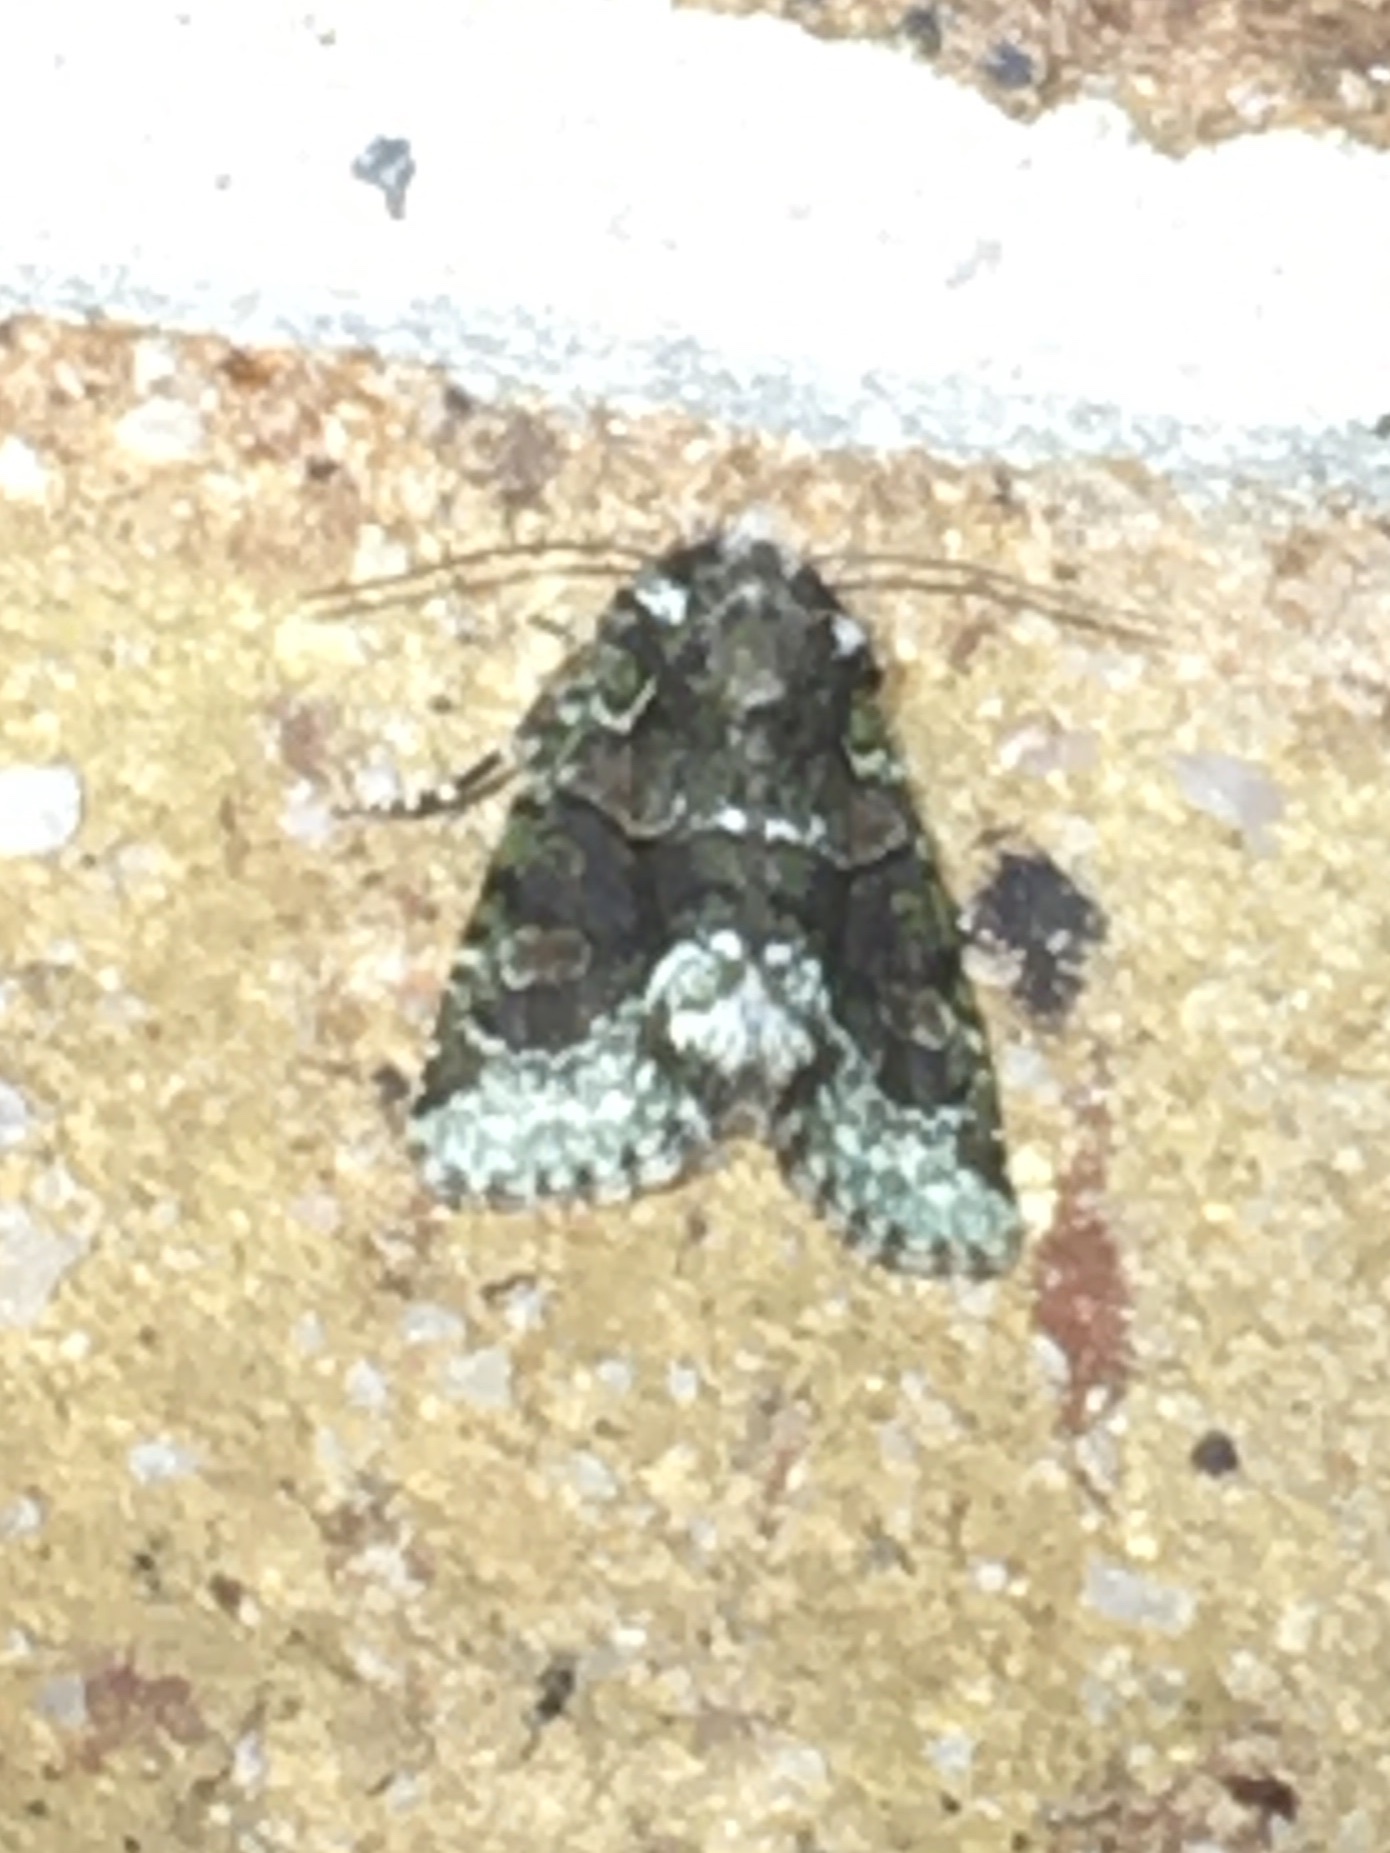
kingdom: Animalia
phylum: Arthropoda
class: Insecta
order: Lepidoptera
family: Noctuidae
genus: Lacinipolia
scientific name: Lacinipolia explicata
